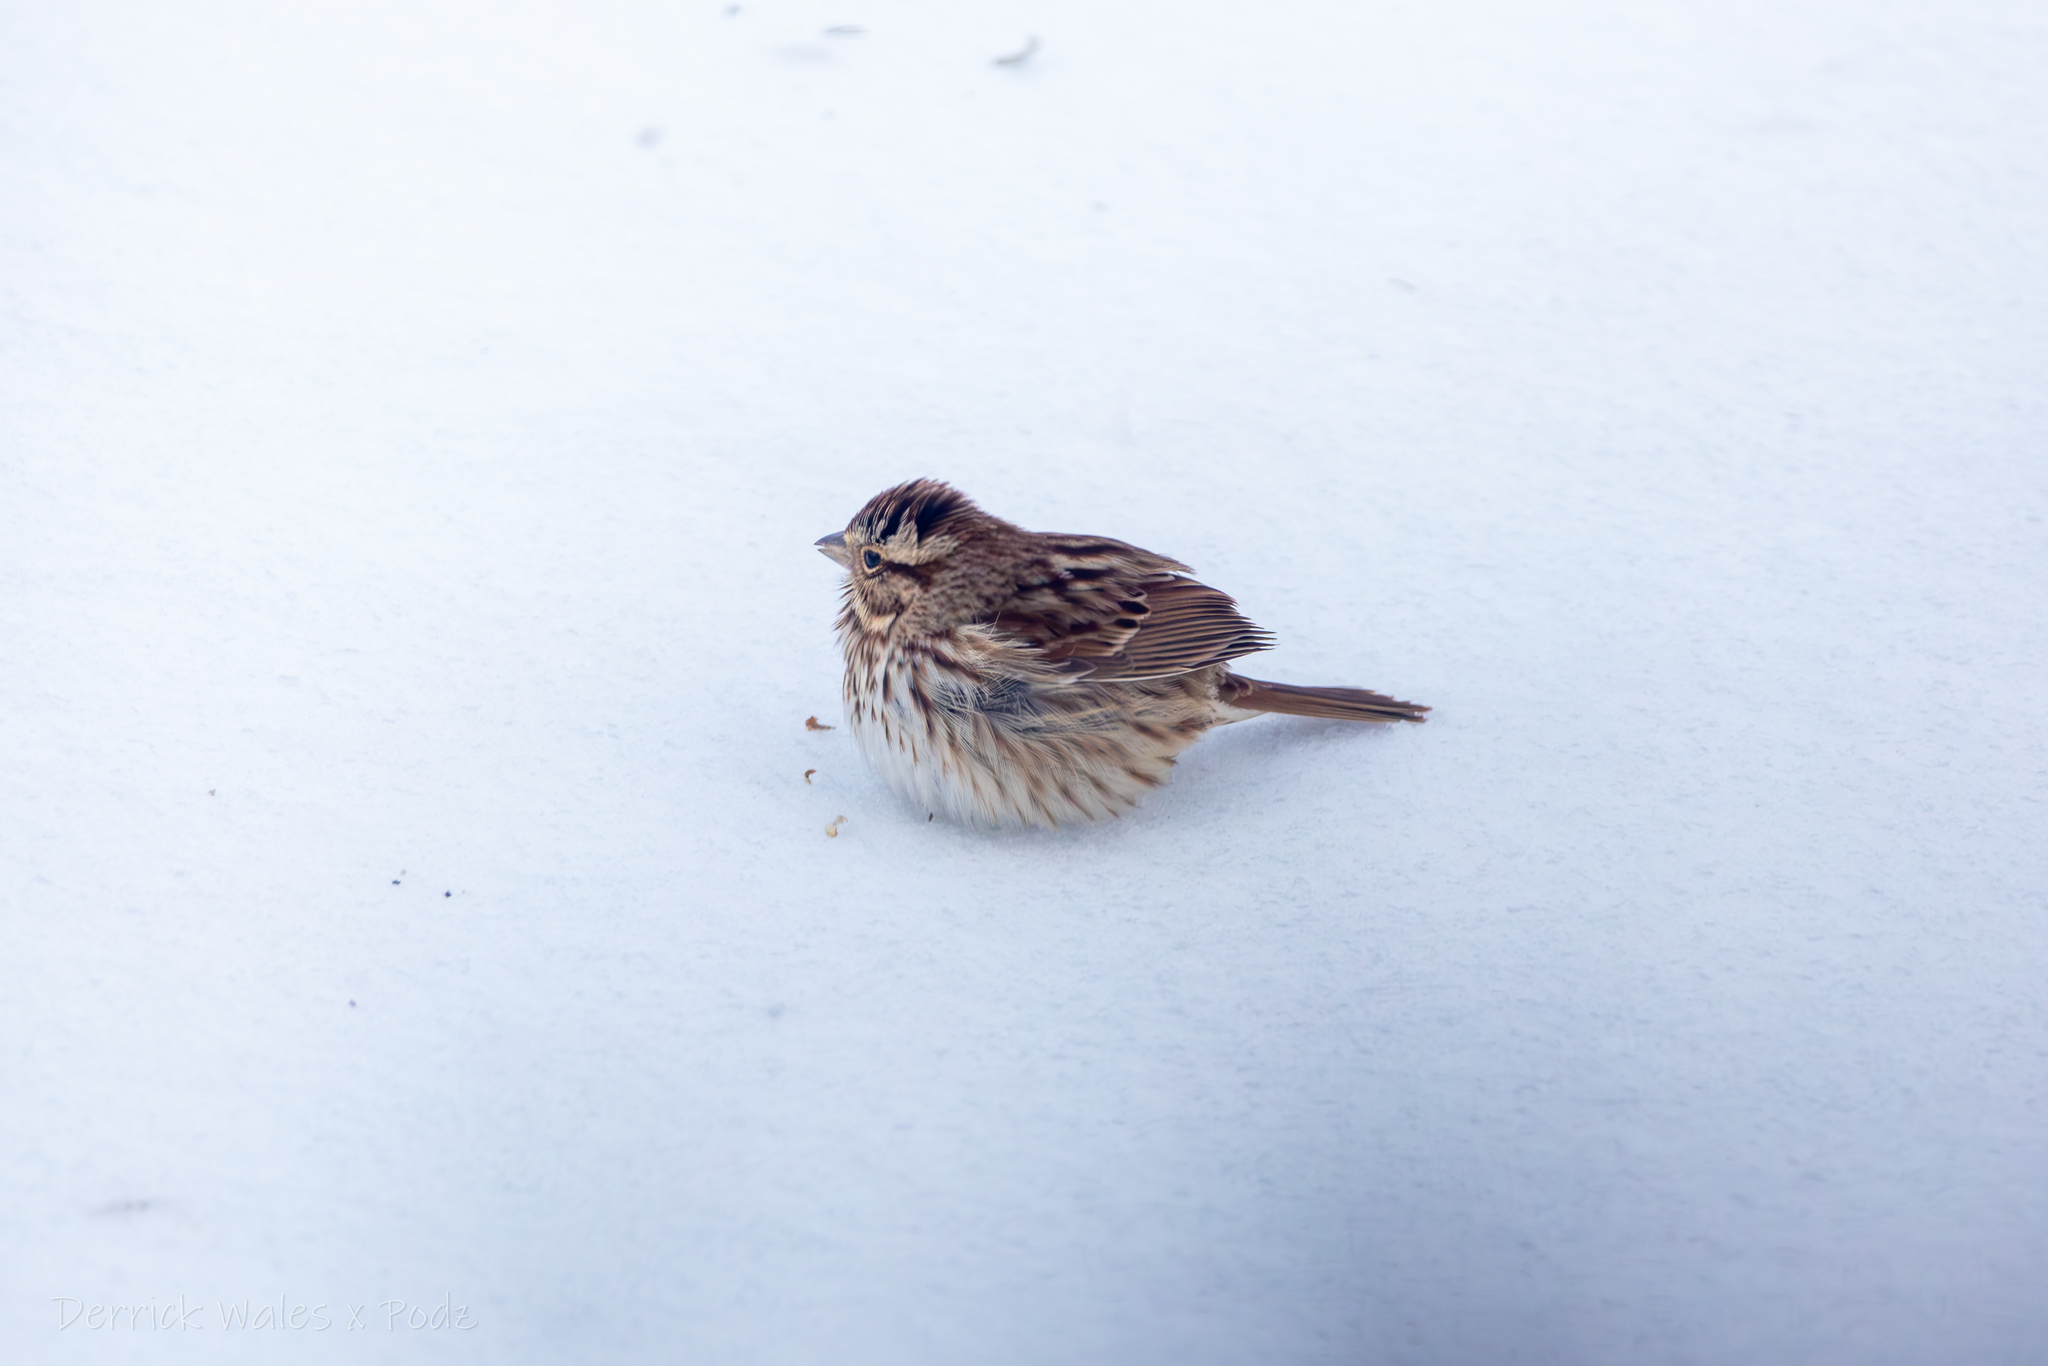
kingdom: Animalia
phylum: Chordata
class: Aves
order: Passeriformes
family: Passerellidae
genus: Melospiza
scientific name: Melospiza melodia
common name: Song sparrow
